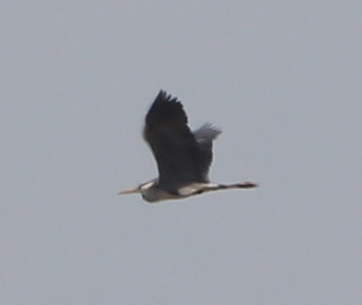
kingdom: Animalia
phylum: Chordata
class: Aves
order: Pelecaniformes
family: Ardeidae
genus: Ardea
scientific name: Ardea cinerea
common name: Grey heron
